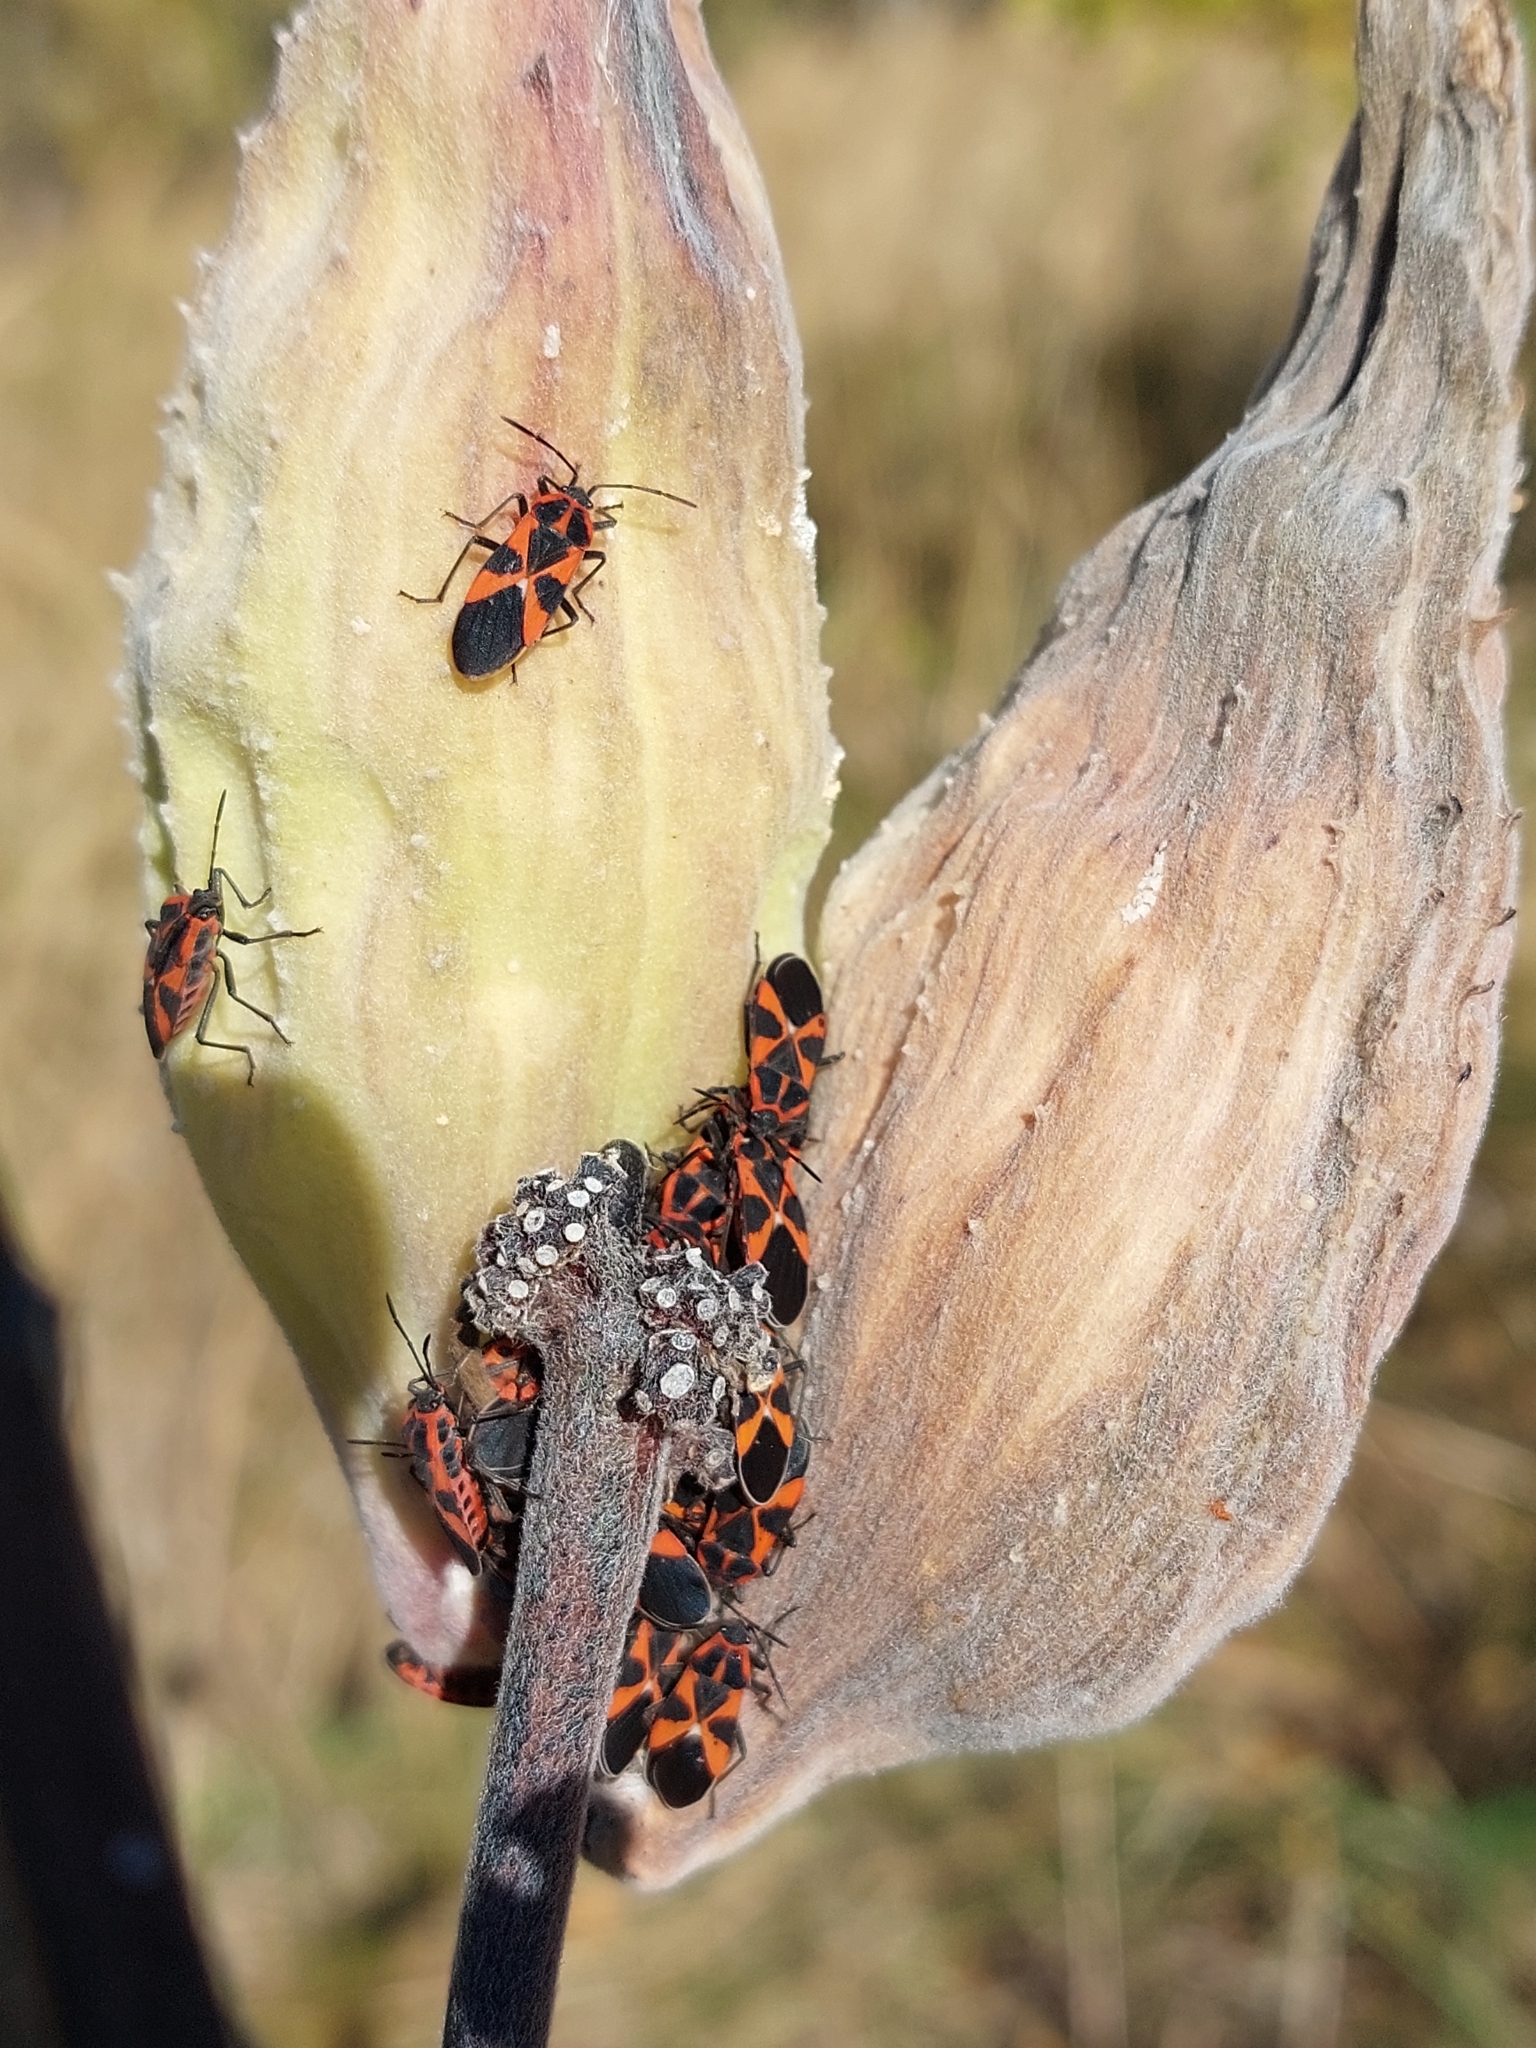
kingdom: Animalia
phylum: Arthropoda
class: Insecta
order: Hemiptera
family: Lygaeidae
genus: Tropidothorax
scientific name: Tropidothorax leucopterus
